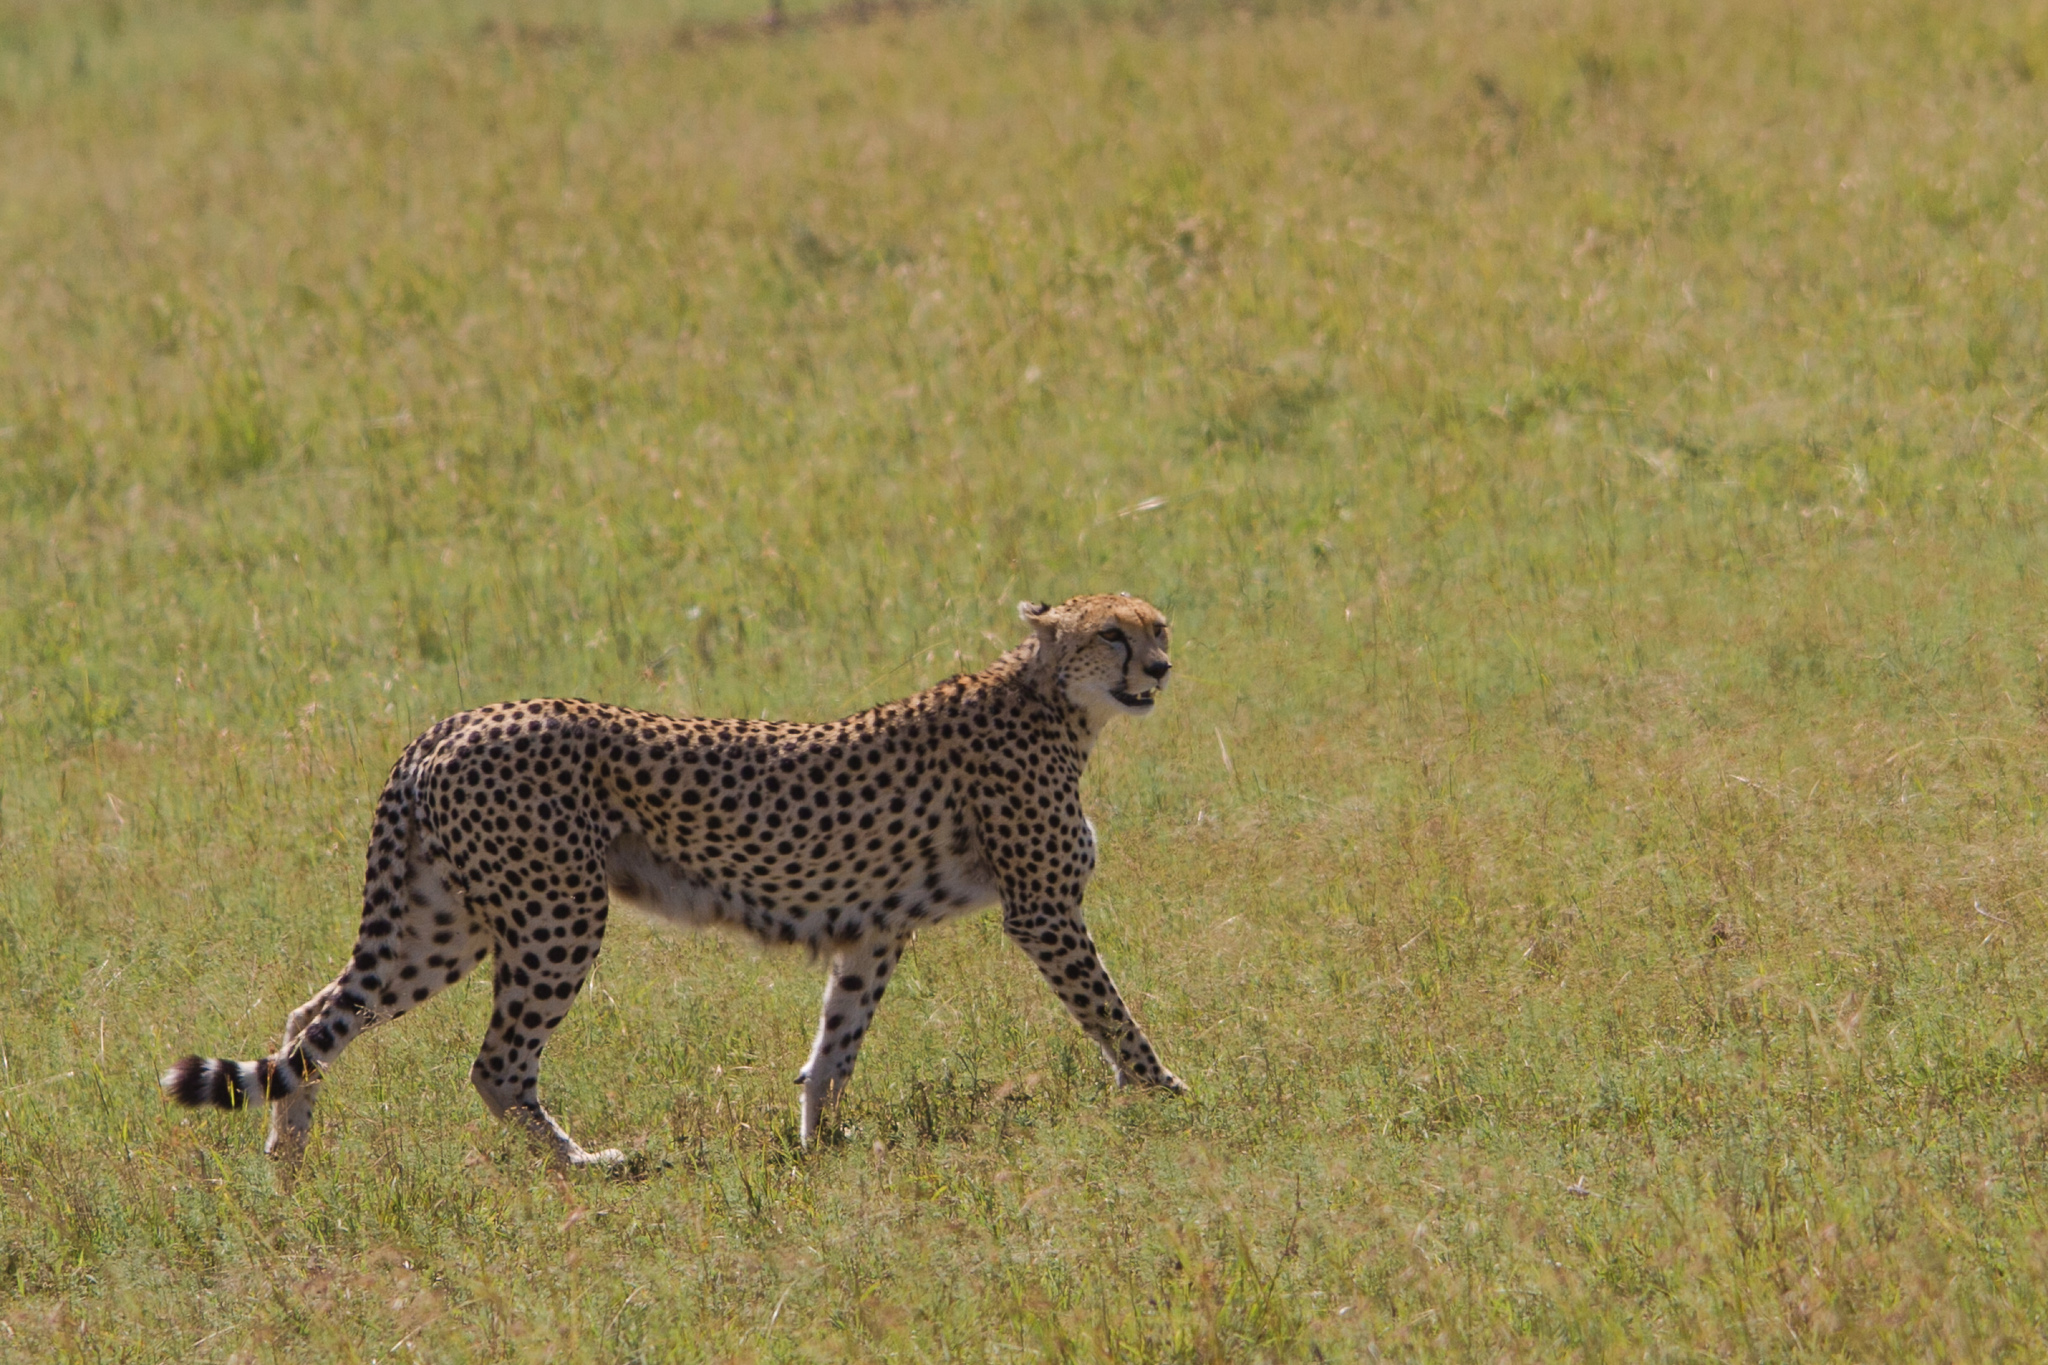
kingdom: Animalia
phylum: Chordata
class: Mammalia
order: Carnivora
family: Felidae
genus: Acinonyx
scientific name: Acinonyx jubatus
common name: Cheetah
